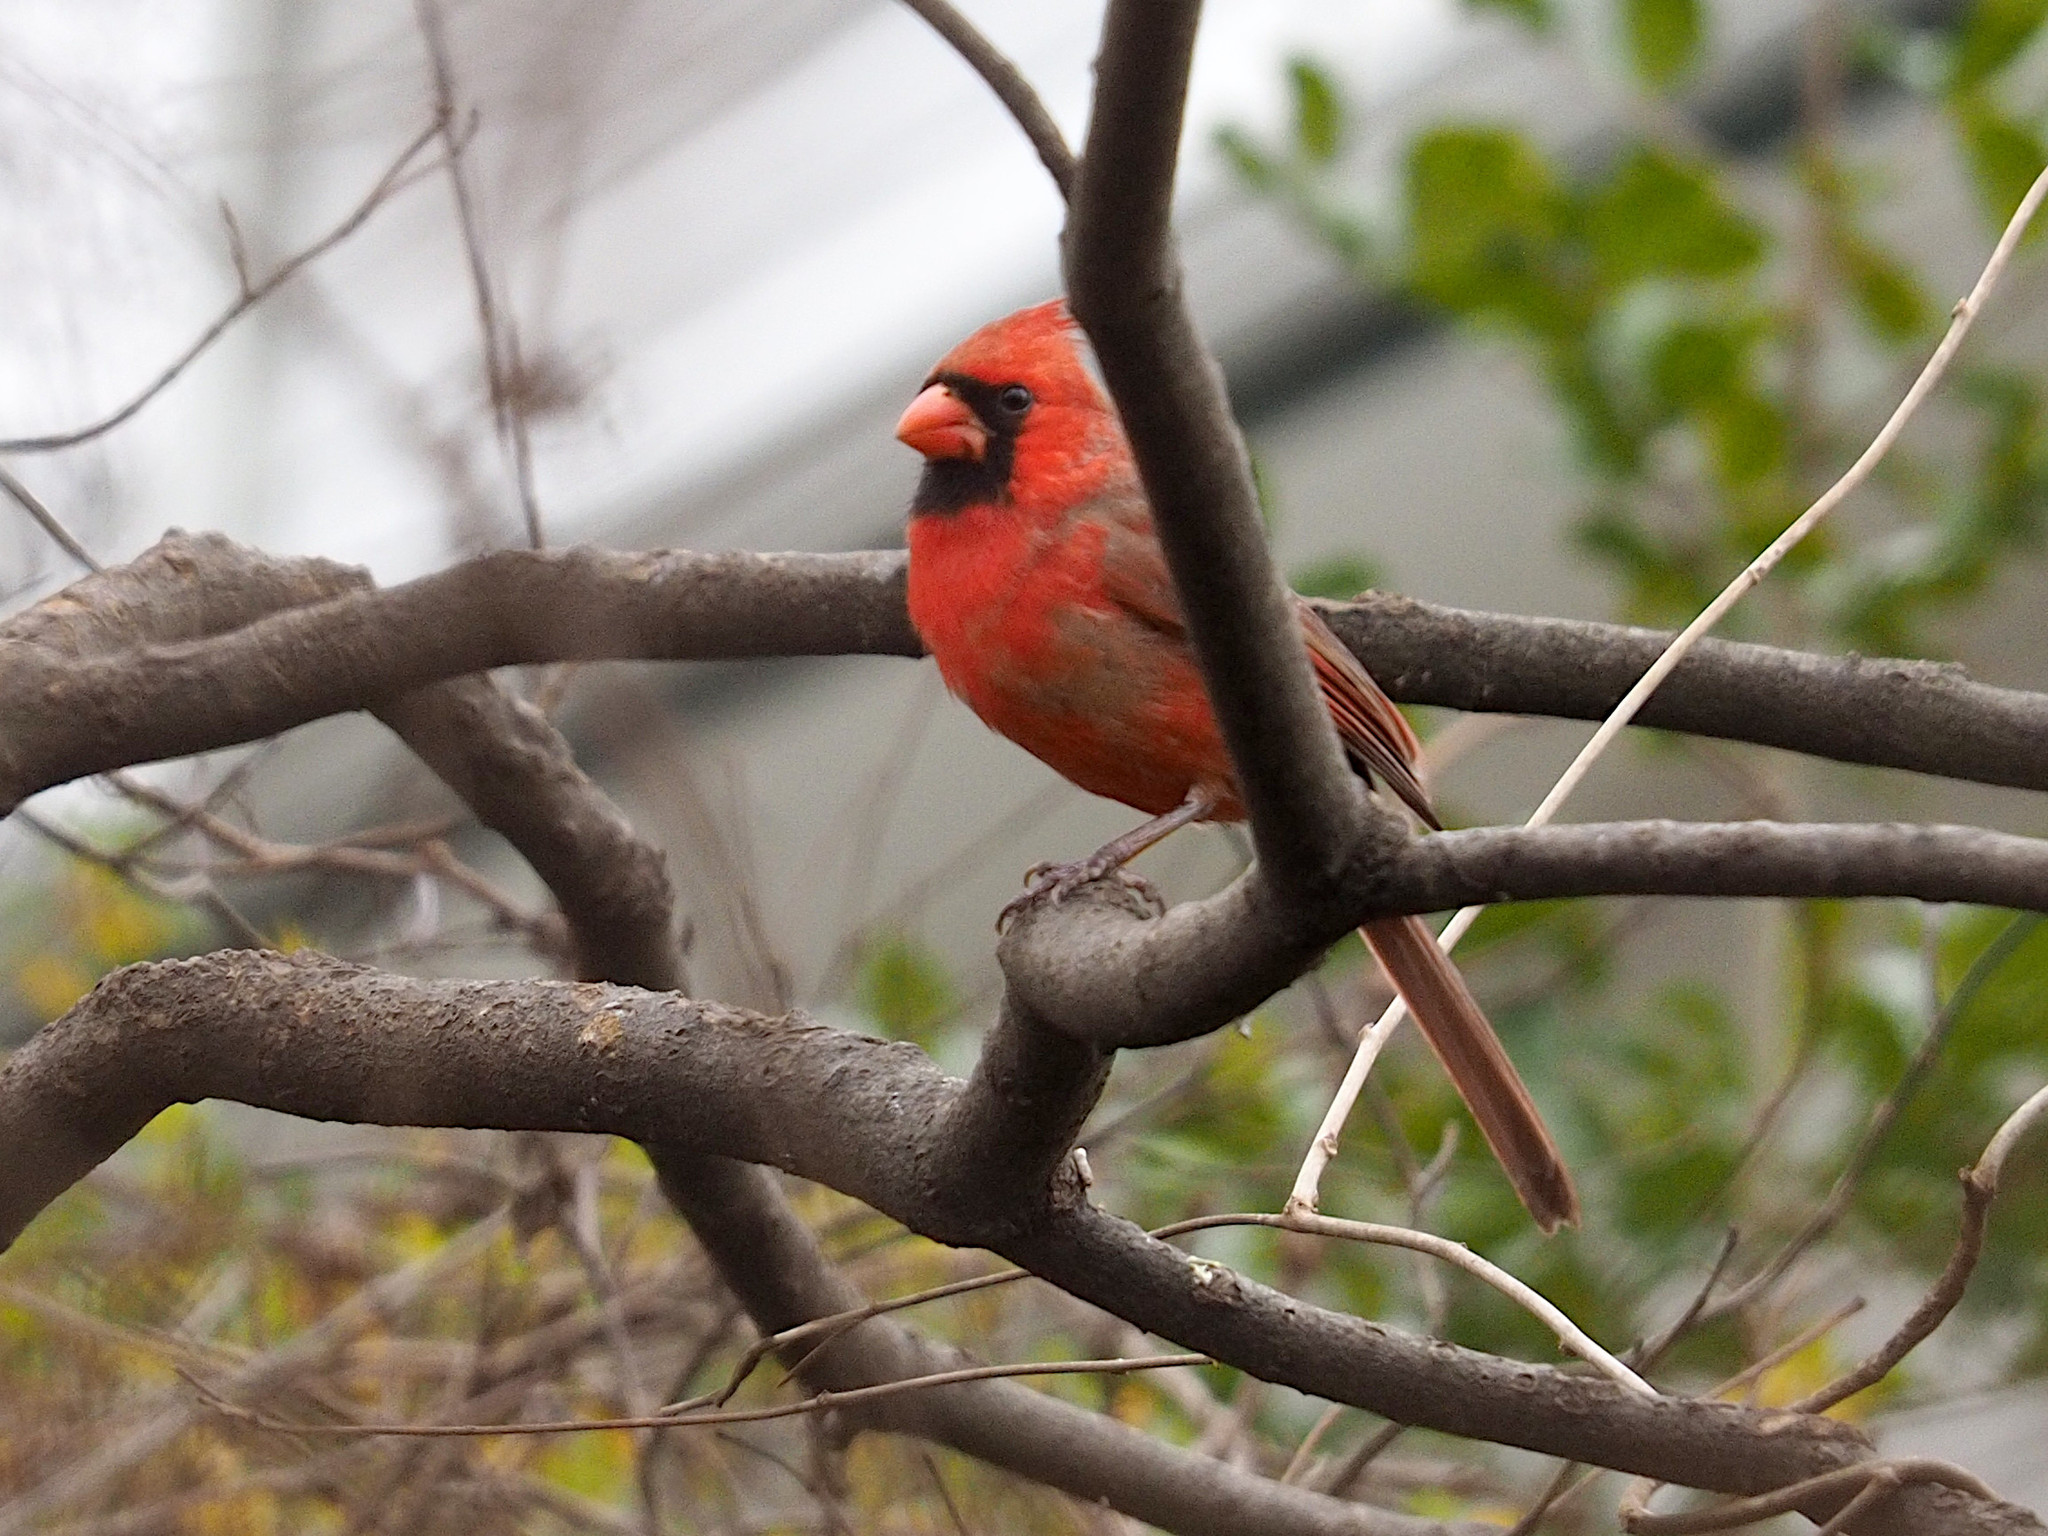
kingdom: Animalia
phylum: Chordata
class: Aves
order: Passeriformes
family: Cardinalidae
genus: Cardinalis
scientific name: Cardinalis cardinalis
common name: Northern cardinal
